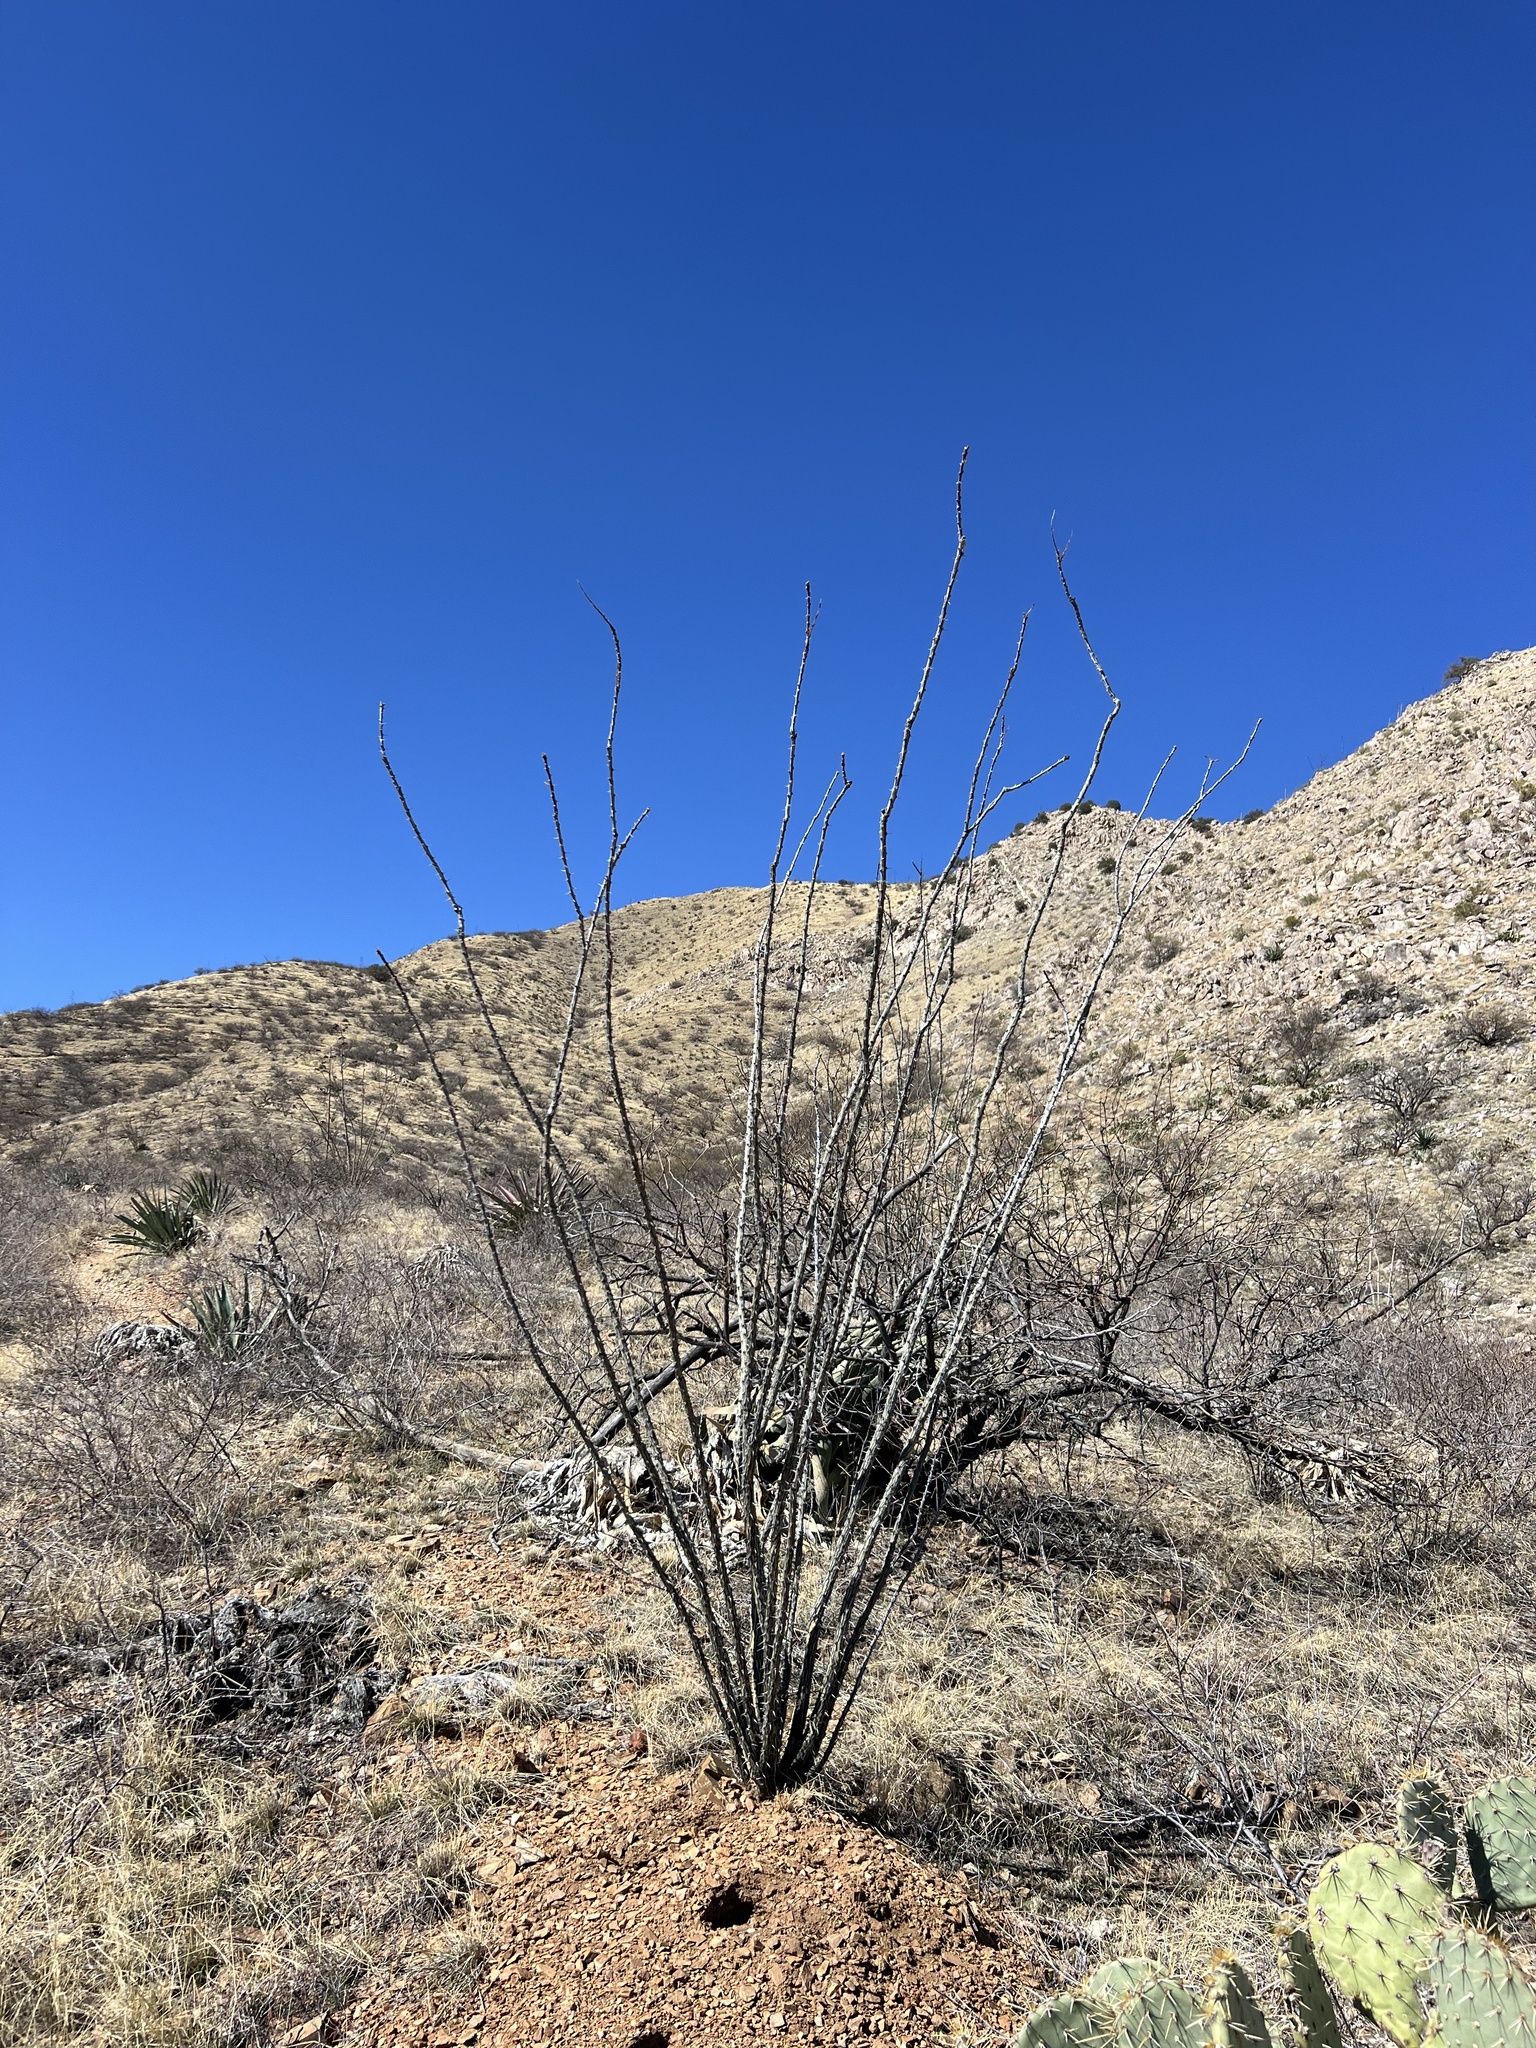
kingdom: Plantae
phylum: Tracheophyta
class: Magnoliopsida
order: Ericales
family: Fouquieriaceae
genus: Fouquieria
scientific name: Fouquieria splendens
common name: Vine-cactus
